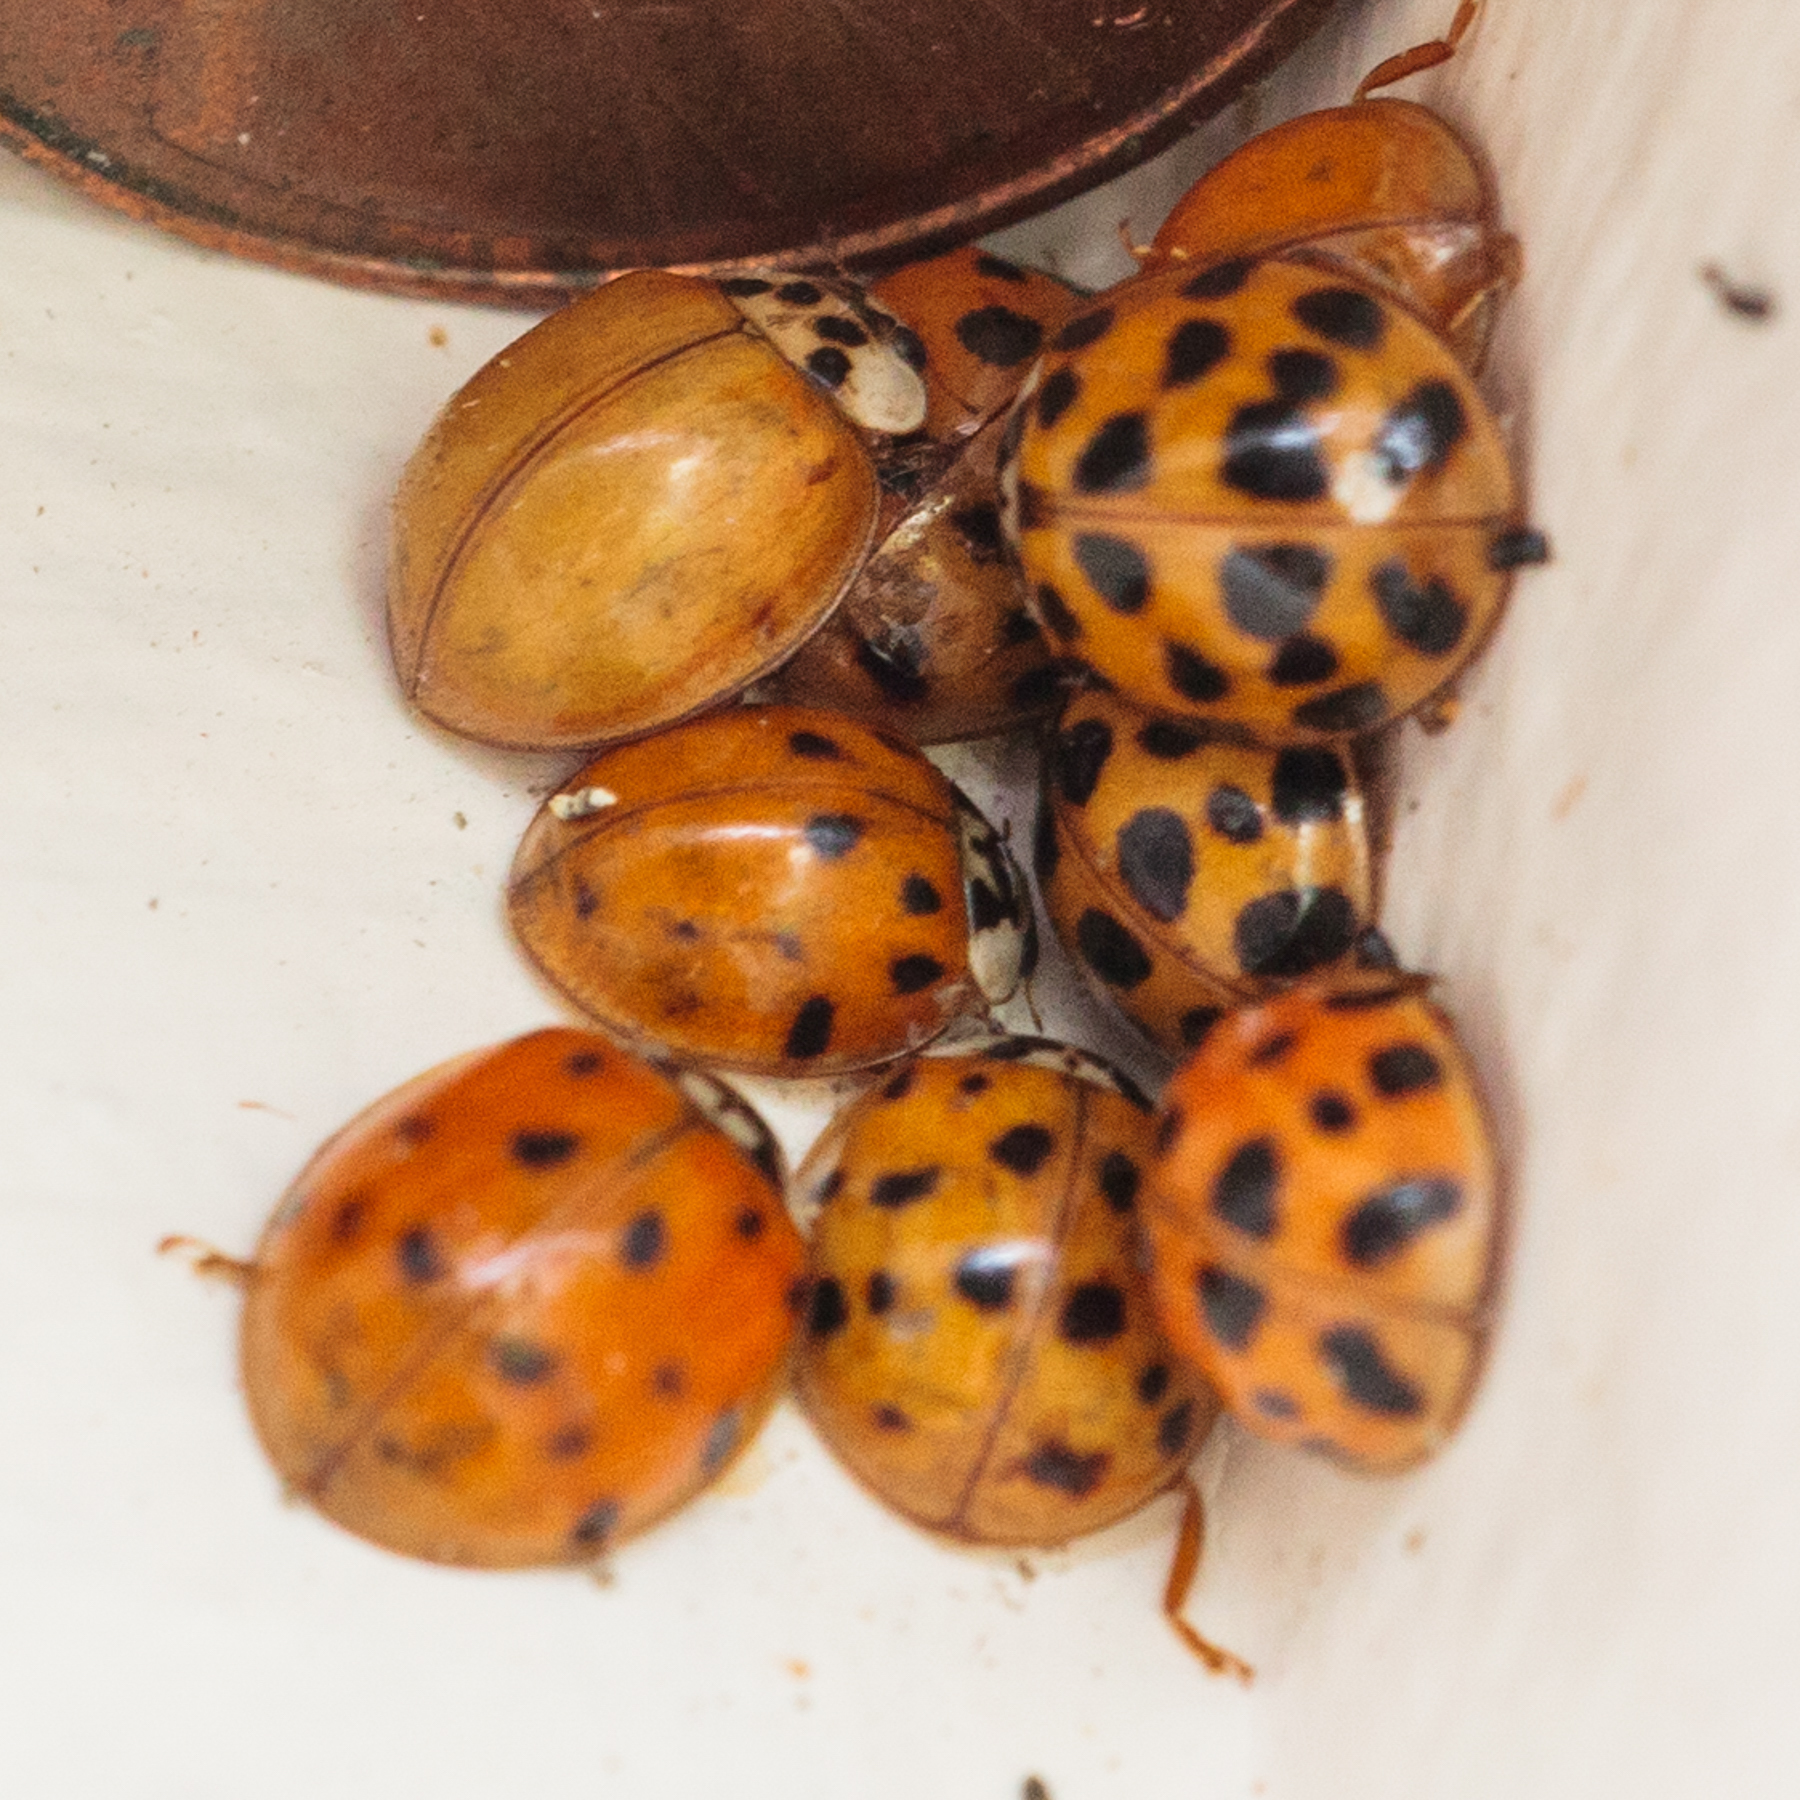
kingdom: Animalia
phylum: Arthropoda
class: Insecta
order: Coleoptera
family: Coccinellidae
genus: Harmonia
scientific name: Harmonia axyridis
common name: Harlequin ladybird
